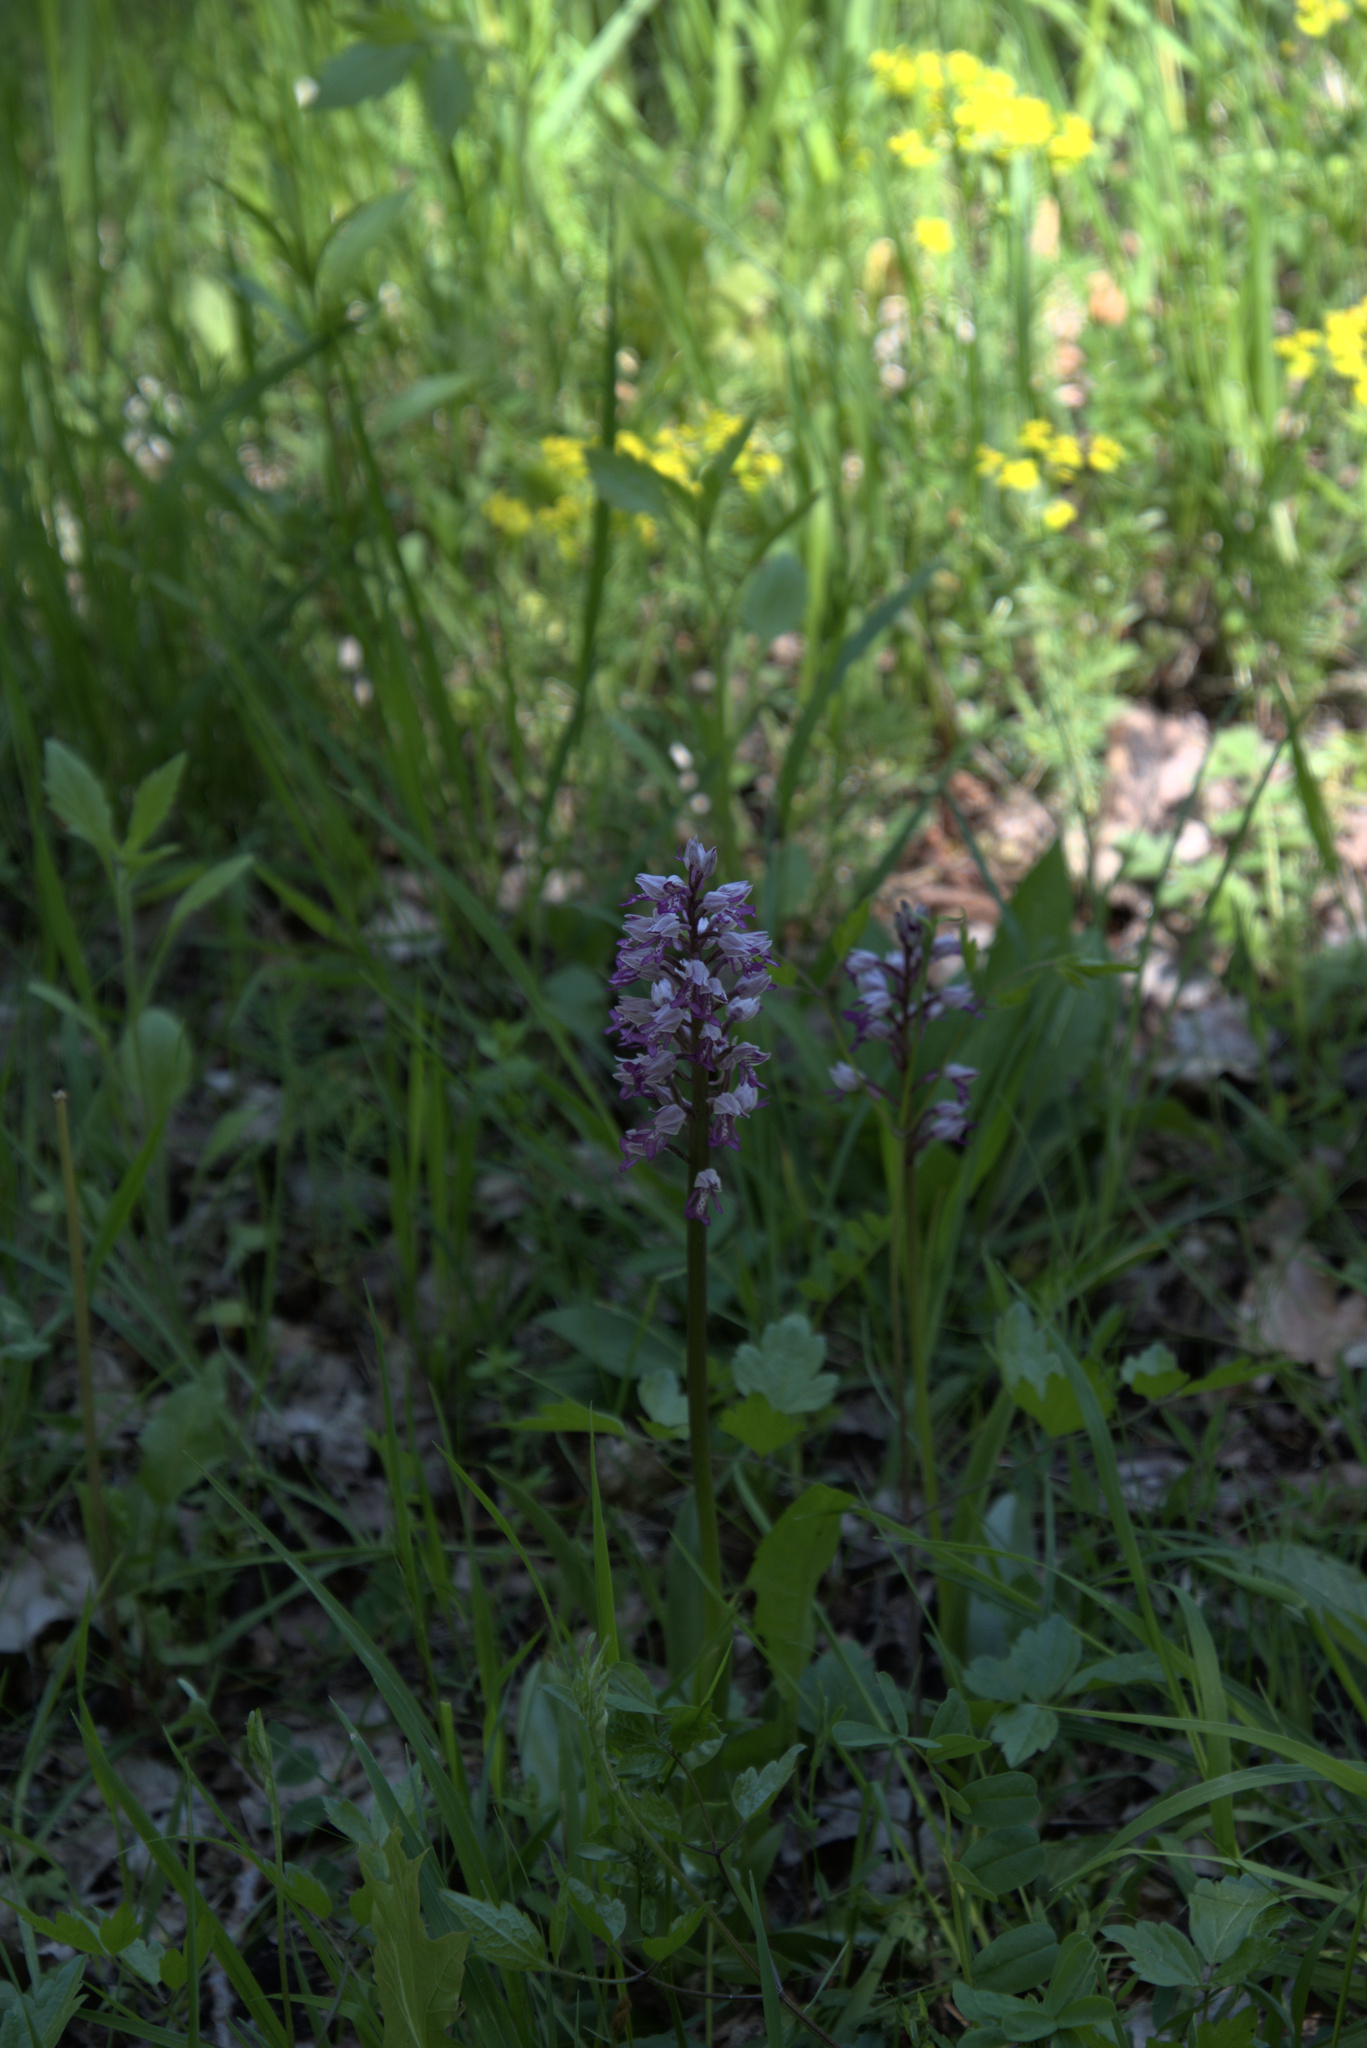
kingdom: Plantae
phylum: Tracheophyta
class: Liliopsida
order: Asparagales
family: Orchidaceae
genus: Orchis
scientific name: Orchis militaris
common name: Military orchid
